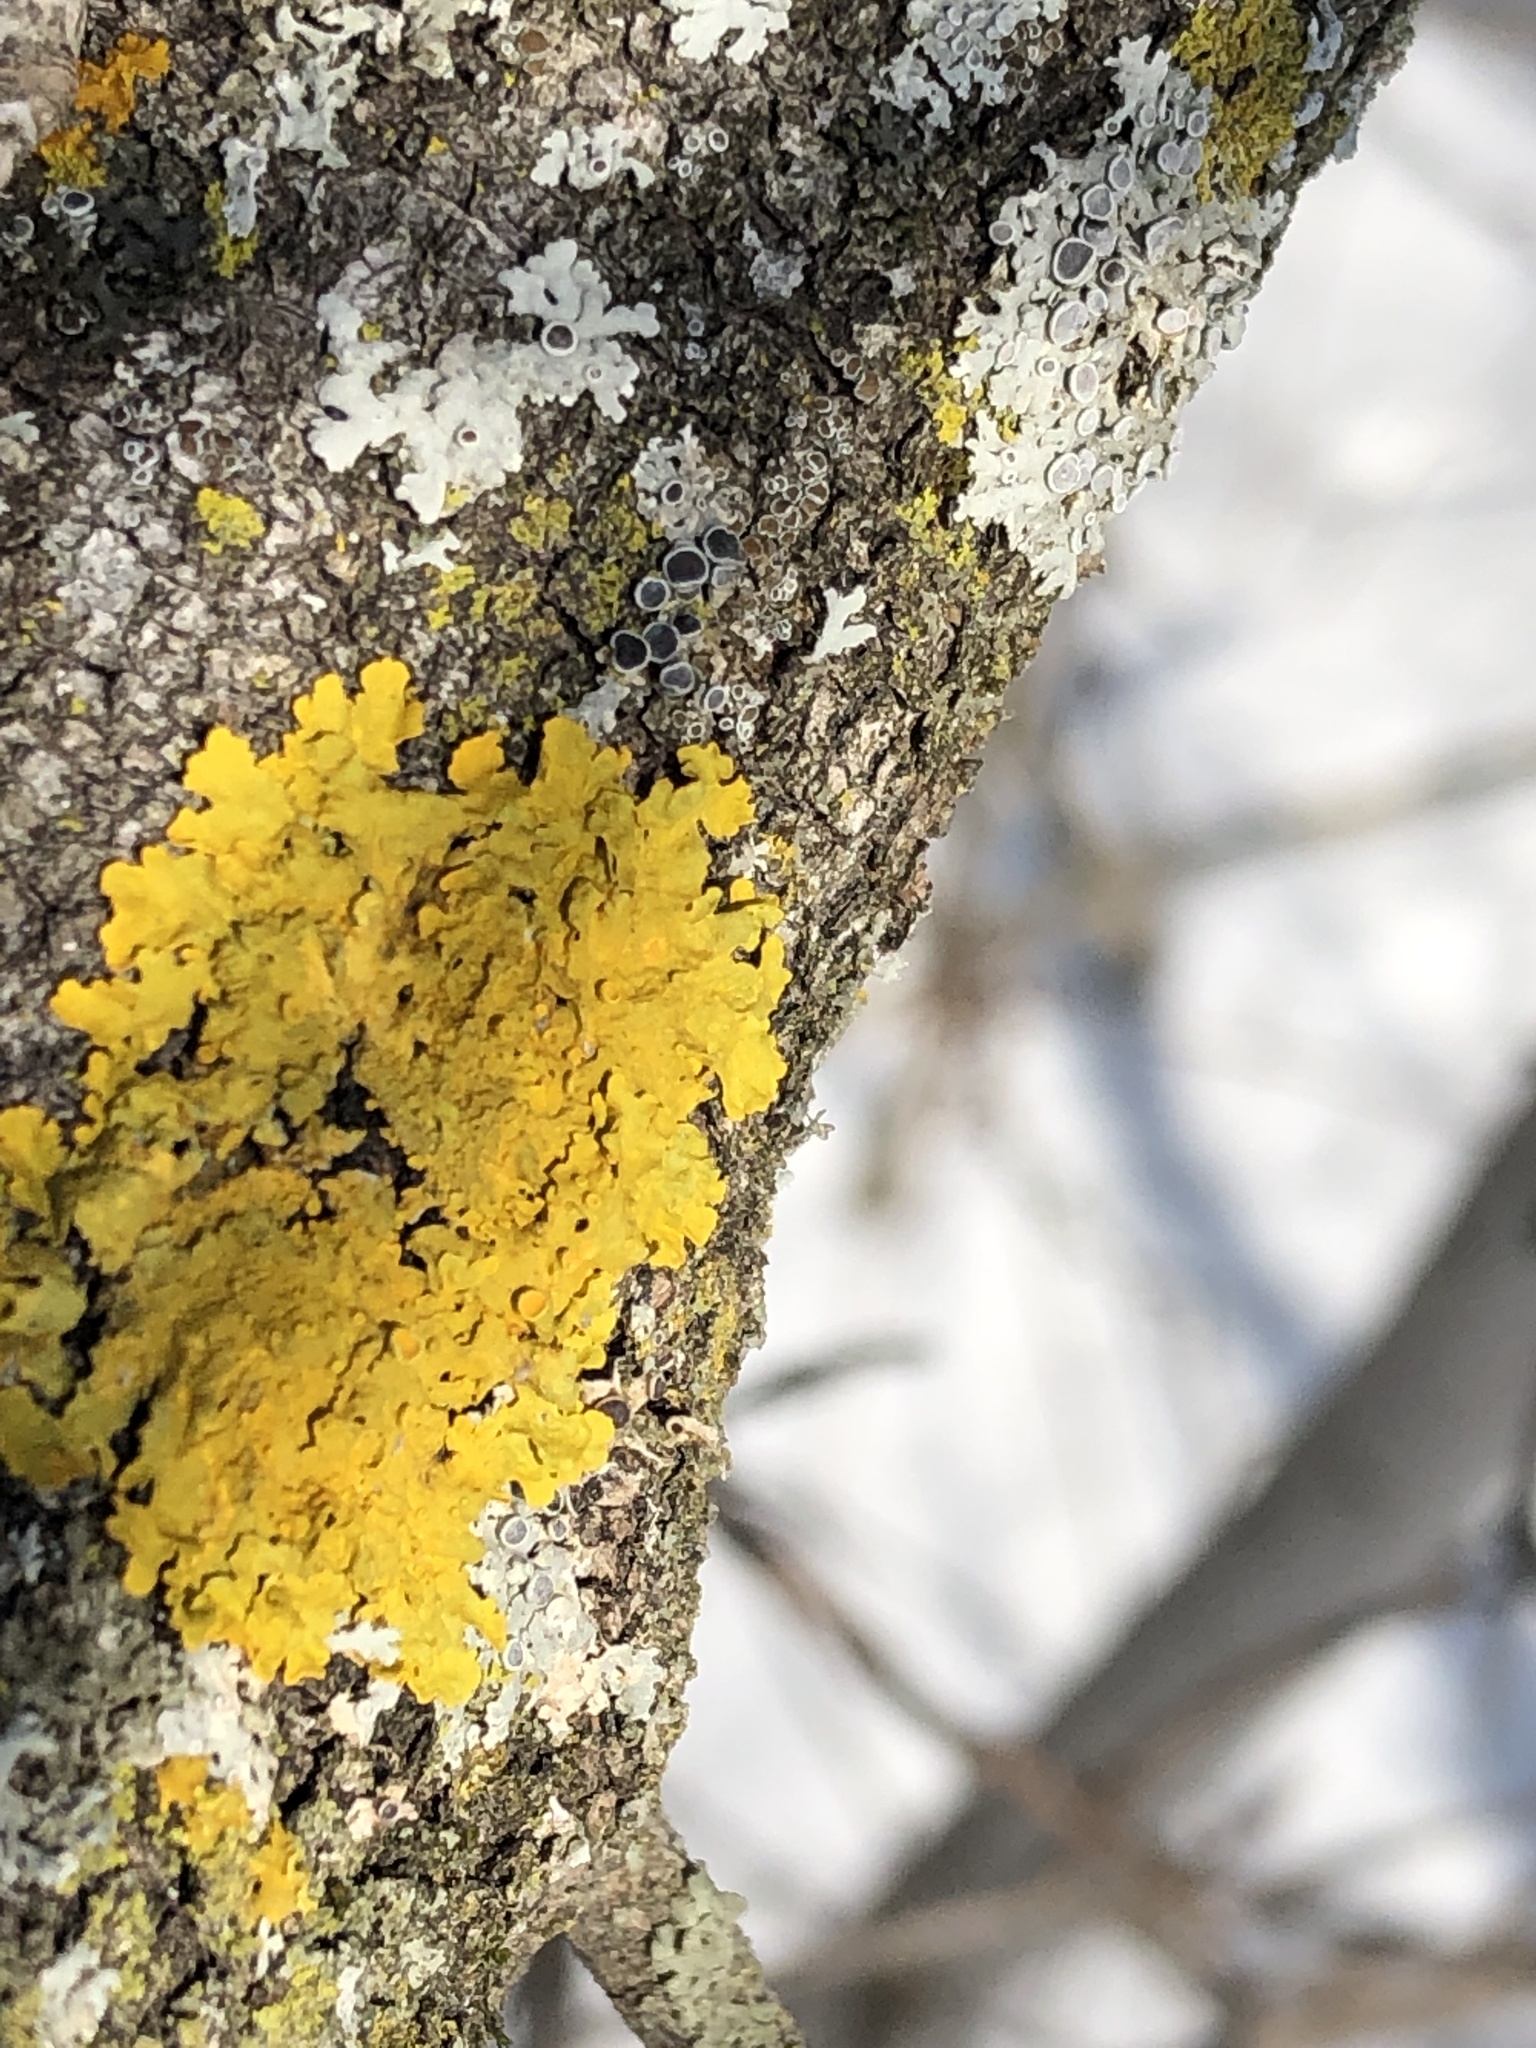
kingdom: Fungi
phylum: Ascomycota
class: Lecanoromycetes
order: Teloschistales
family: Teloschistaceae
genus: Gallowayella
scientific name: Gallowayella hasseana
